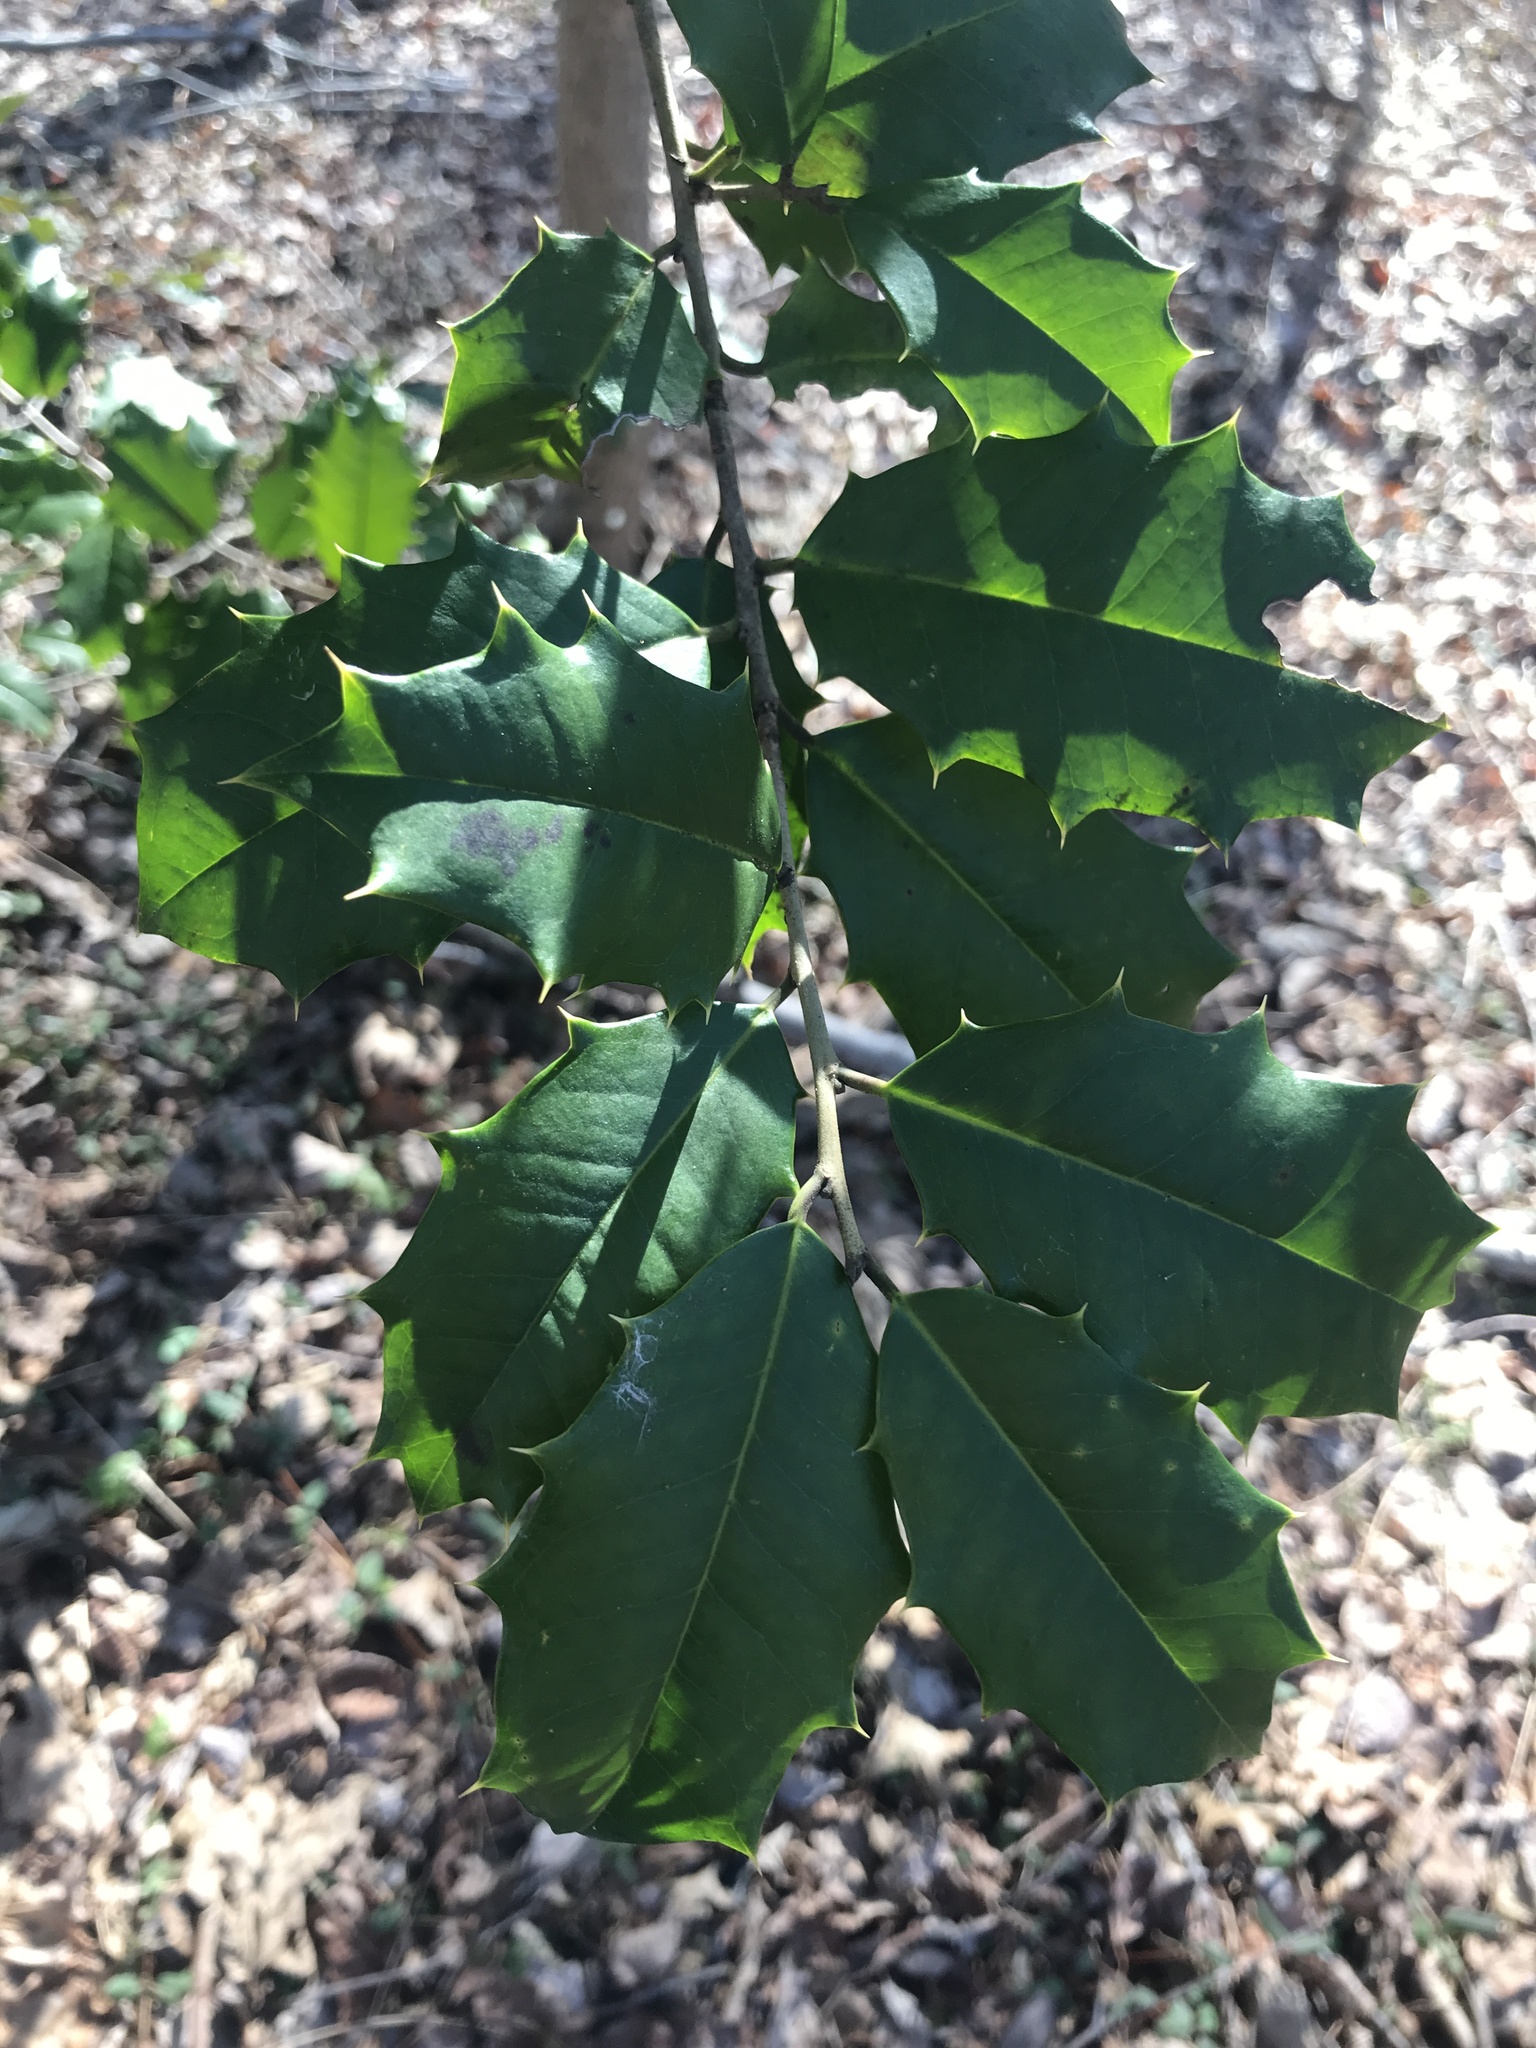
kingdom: Plantae
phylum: Tracheophyta
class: Magnoliopsida
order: Aquifoliales
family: Aquifoliaceae
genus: Ilex
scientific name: Ilex opaca
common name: American holly
